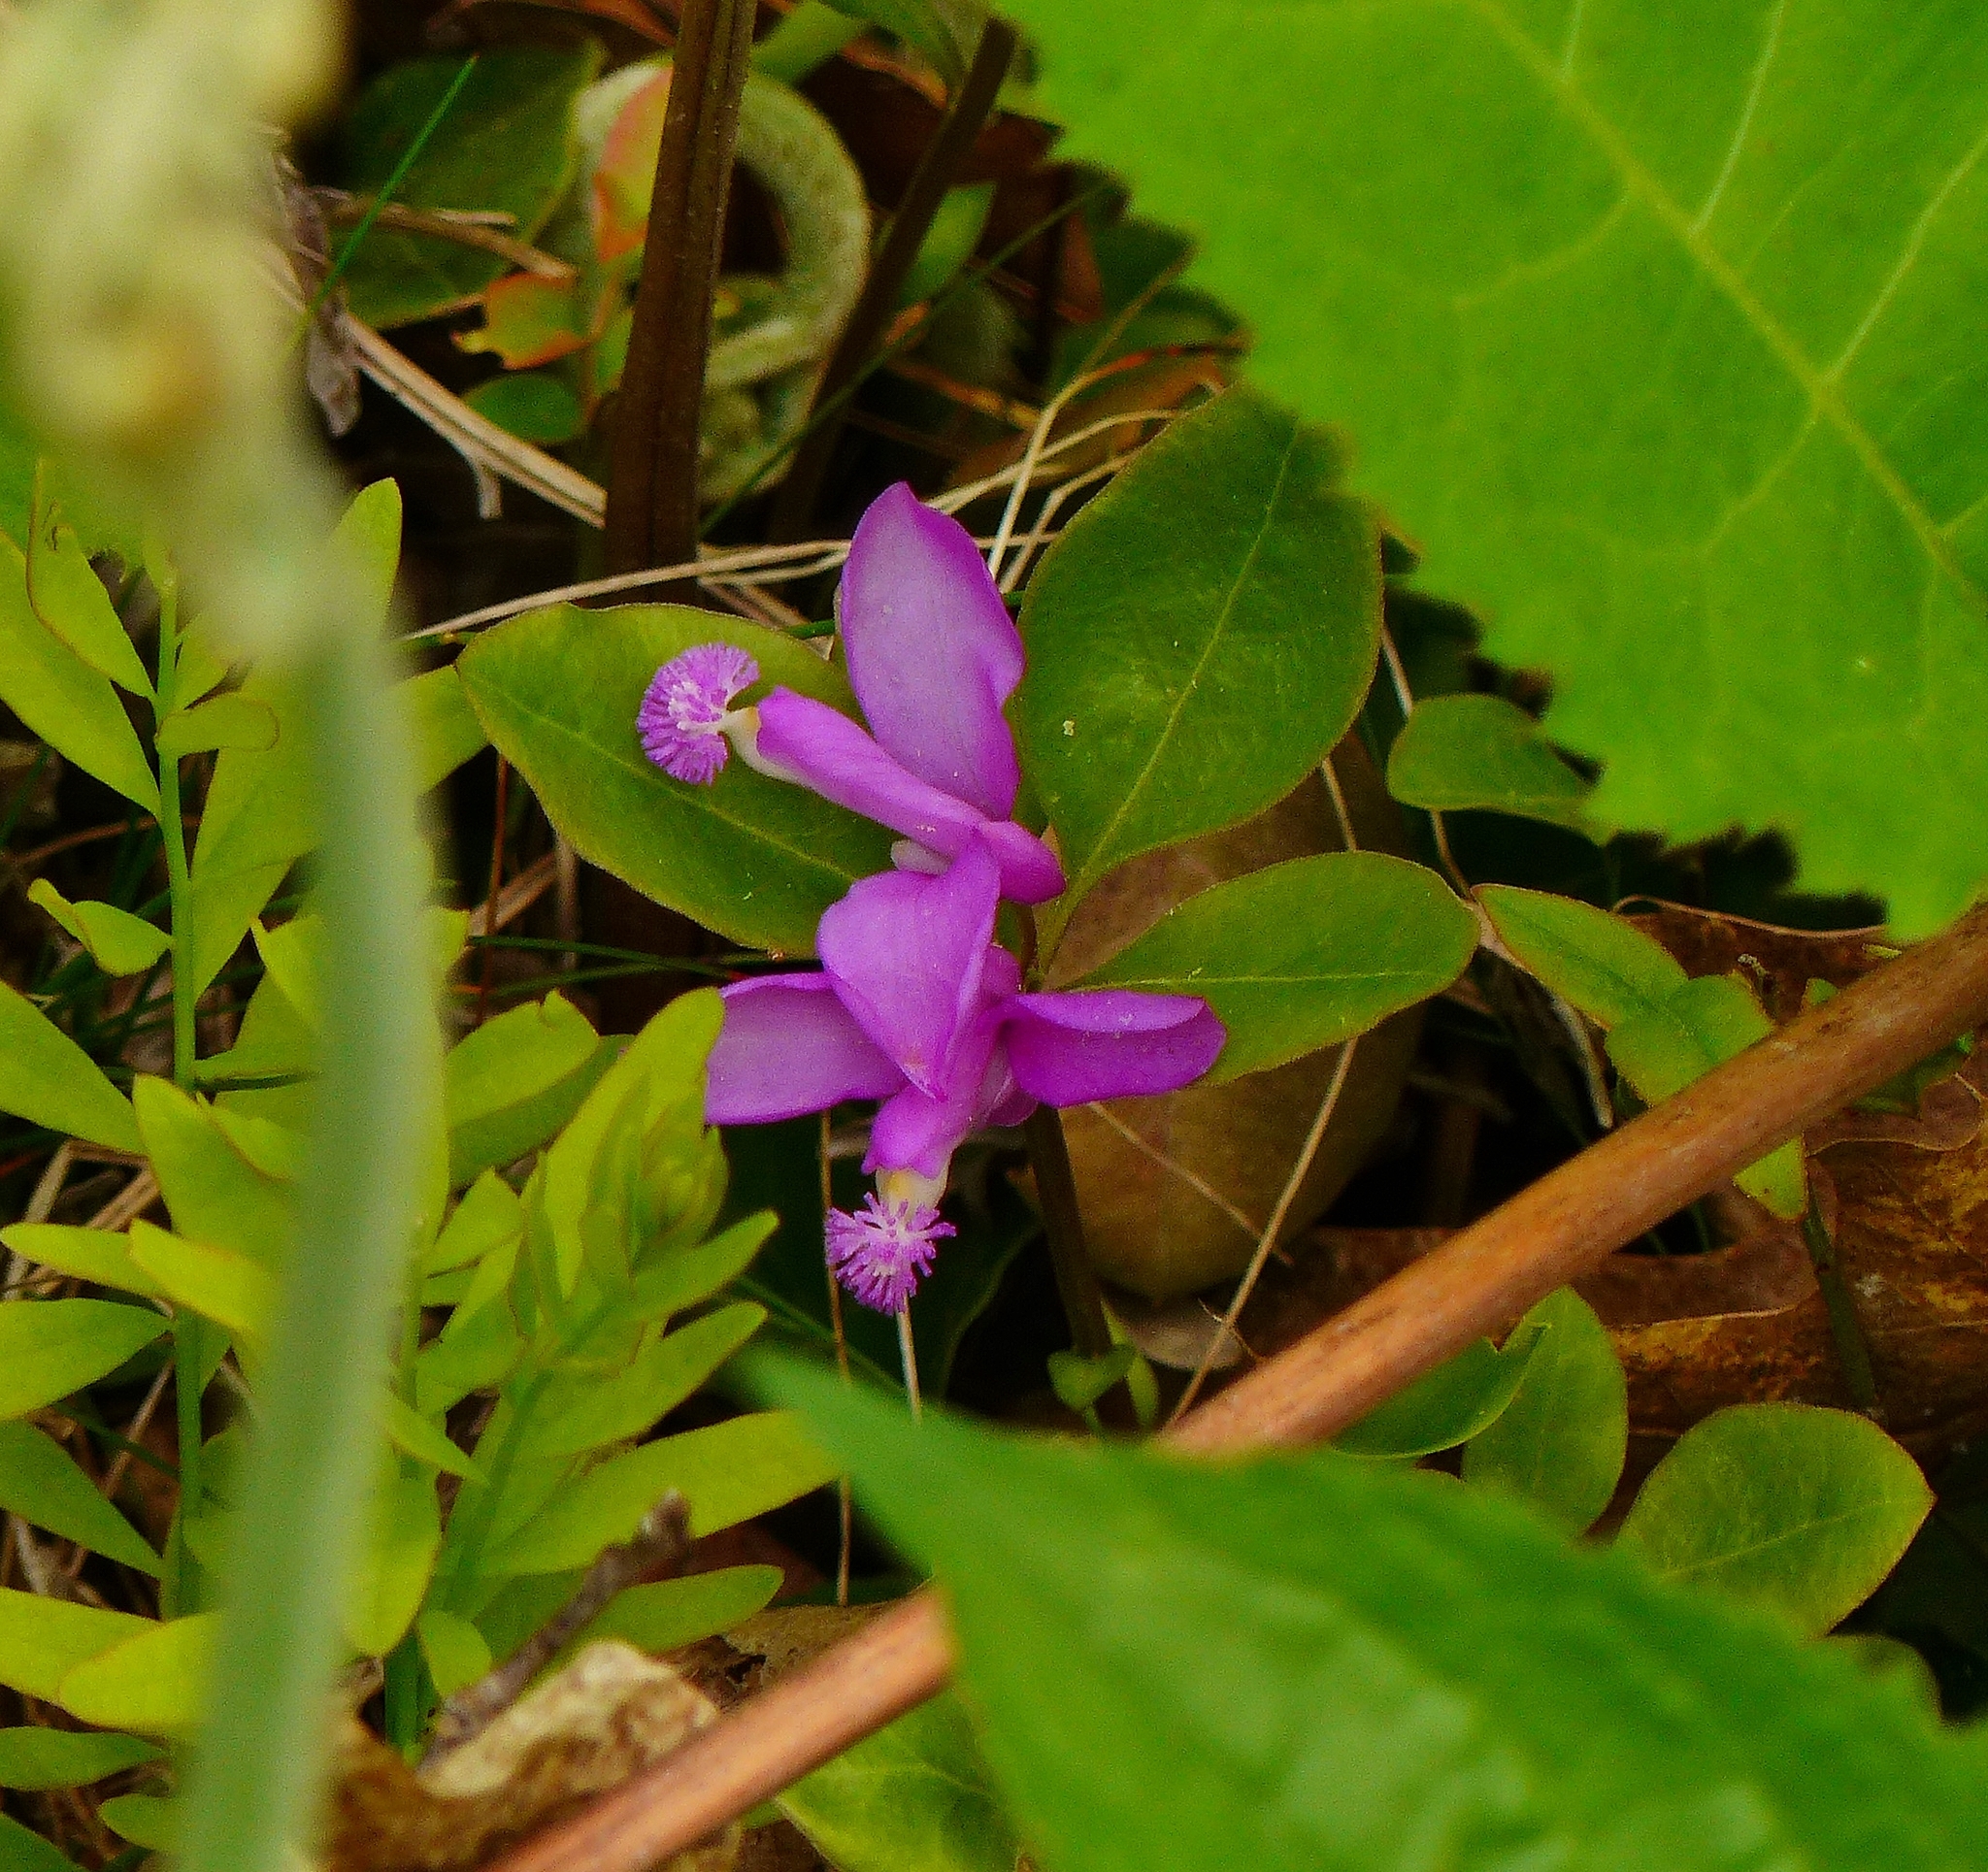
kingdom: Plantae
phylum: Tracheophyta
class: Magnoliopsida
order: Fabales
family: Polygalaceae
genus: Polygaloides
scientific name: Polygaloides paucifolia
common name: Bird-on-the-wing
